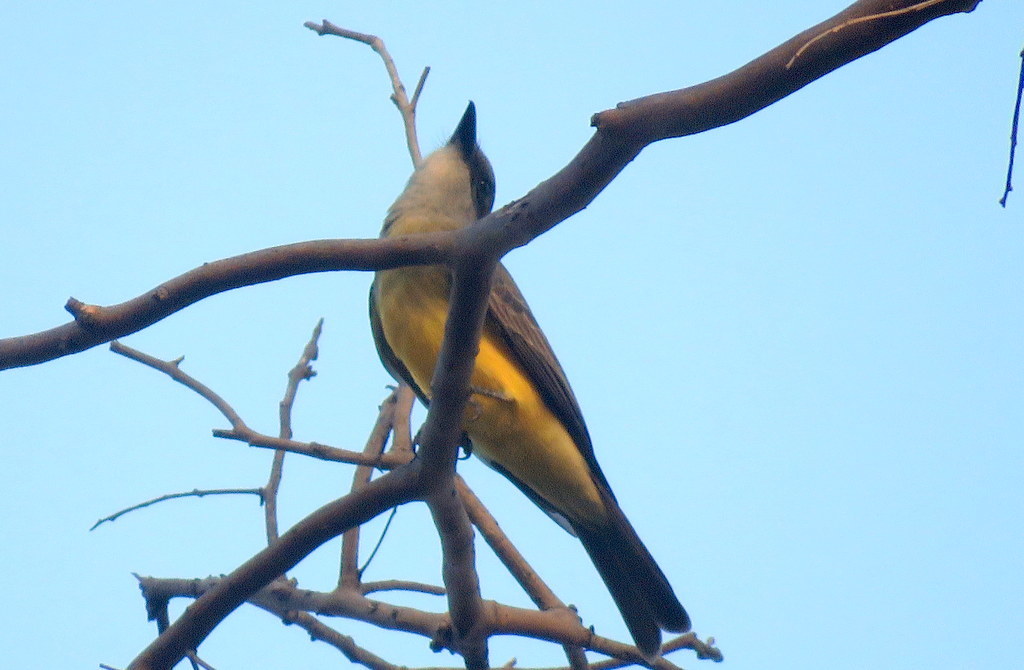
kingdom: Animalia
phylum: Chordata
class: Aves
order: Passeriformes
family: Tyrannidae
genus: Tyrannus
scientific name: Tyrannus melancholicus
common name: Tropical kingbird
